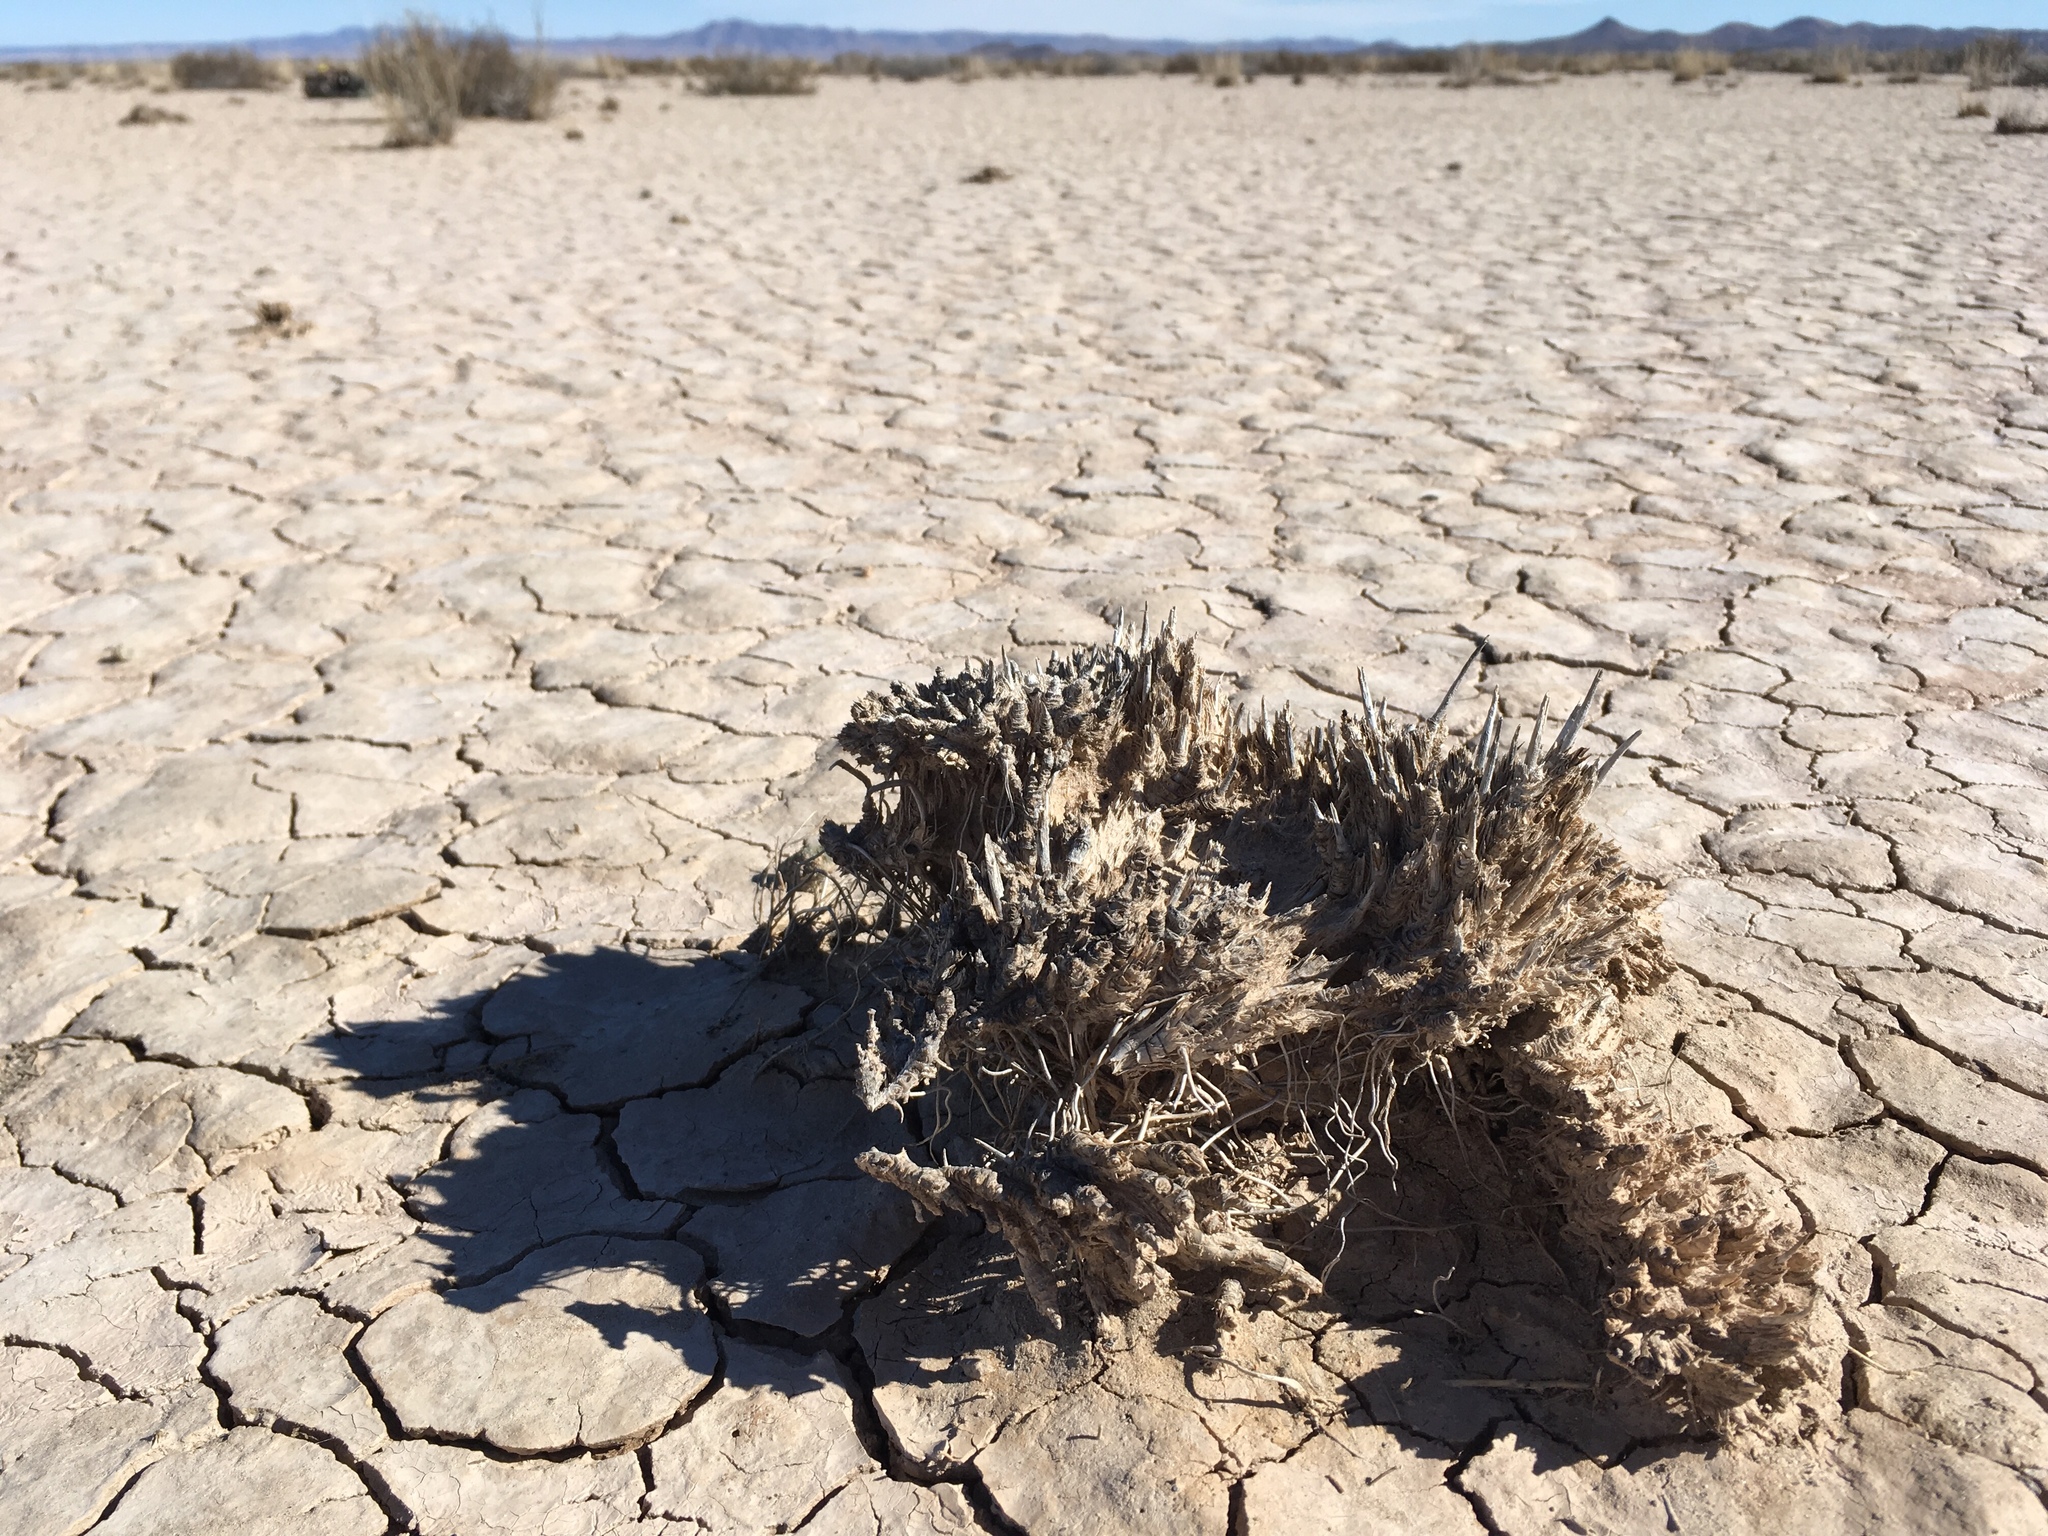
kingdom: Plantae
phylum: Tracheophyta
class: Liliopsida
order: Poales
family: Poaceae
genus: Sporobolus
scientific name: Sporobolus airoides
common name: Alkali sacaton
